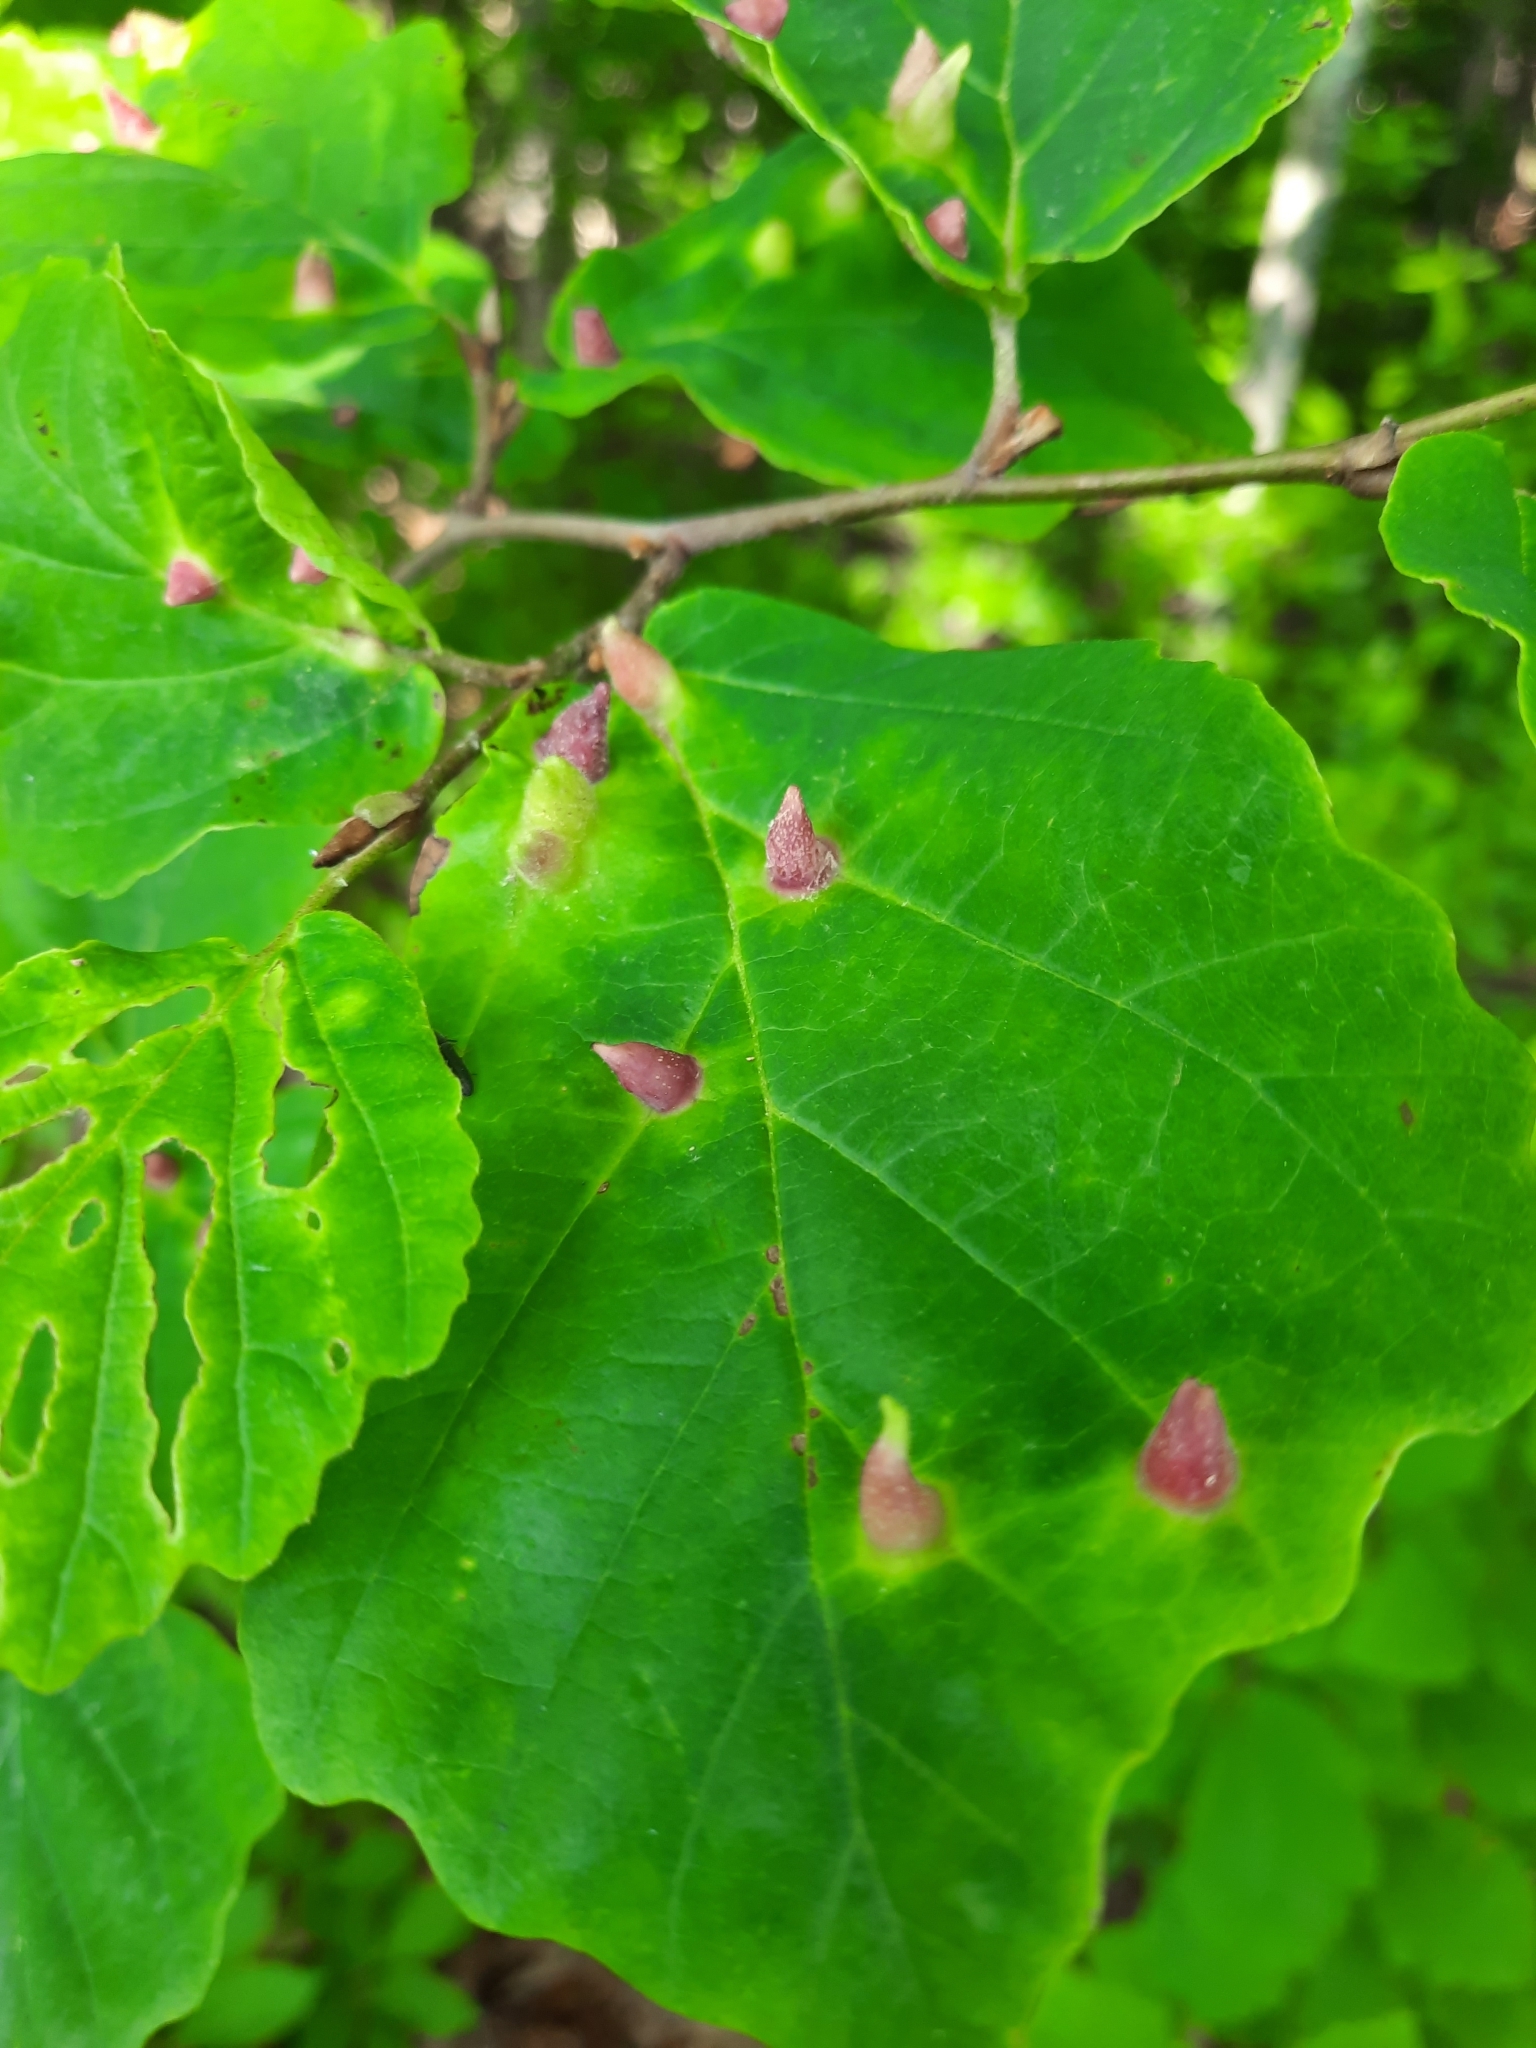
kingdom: Animalia
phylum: Arthropoda
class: Insecta
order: Hemiptera
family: Aphididae
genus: Hormaphis
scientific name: Hormaphis hamamelidis
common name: Witch-hazel cone gall aphid
